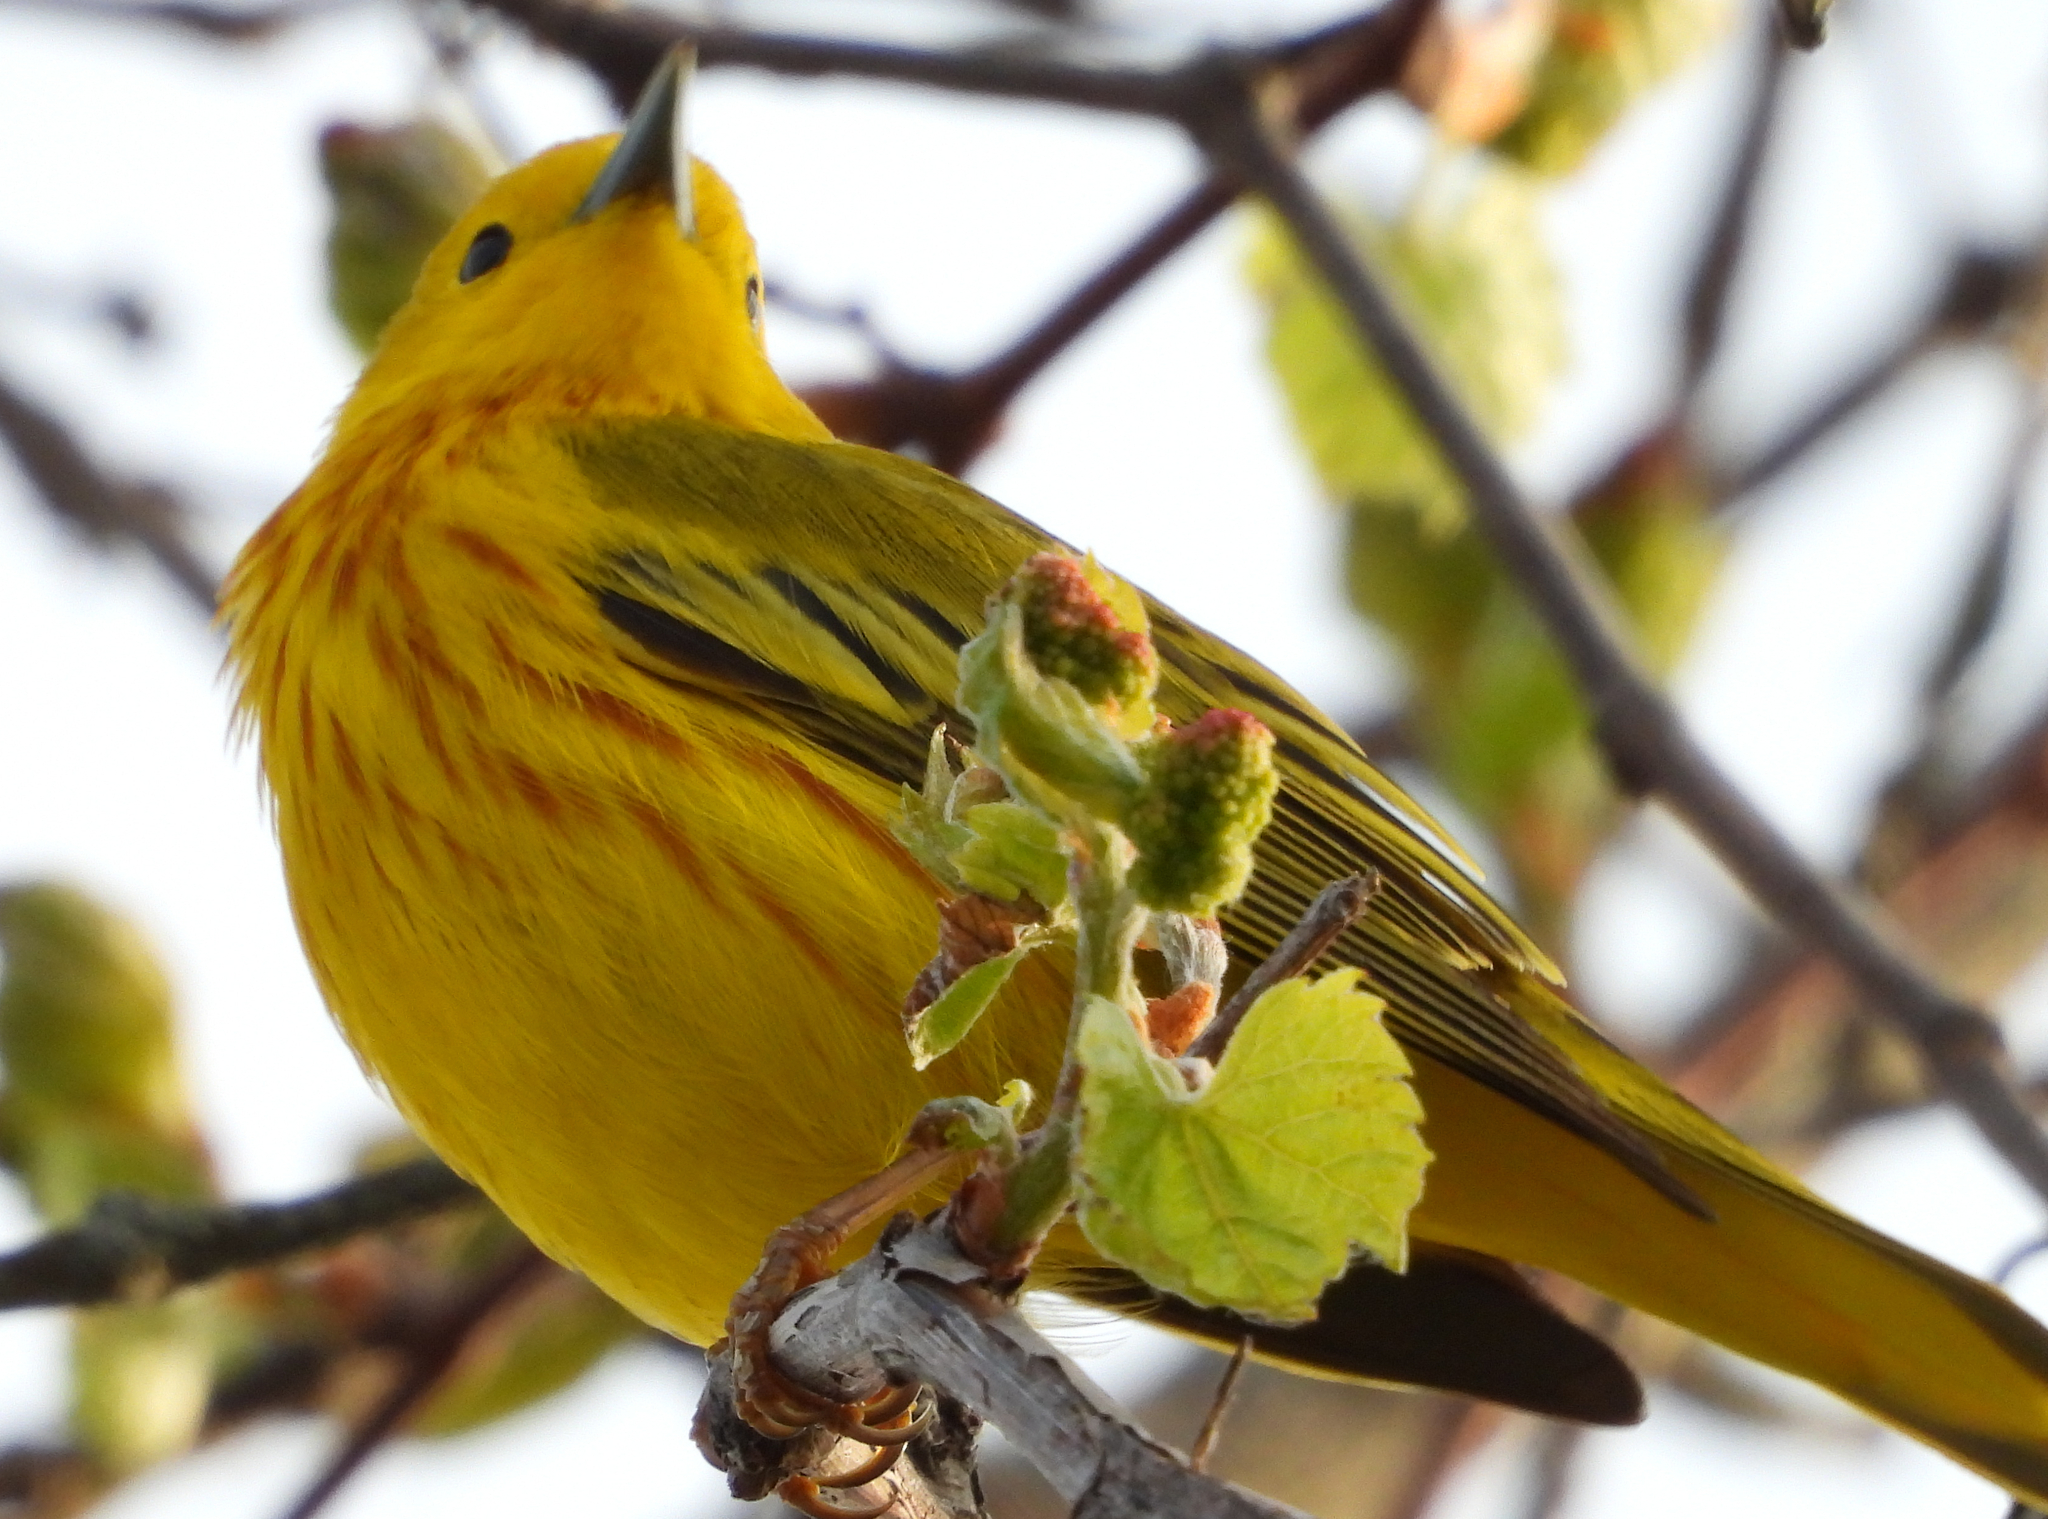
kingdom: Animalia
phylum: Chordata
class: Aves
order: Passeriformes
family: Parulidae
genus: Setophaga
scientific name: Setophaga petechia
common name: Yellow warbler
